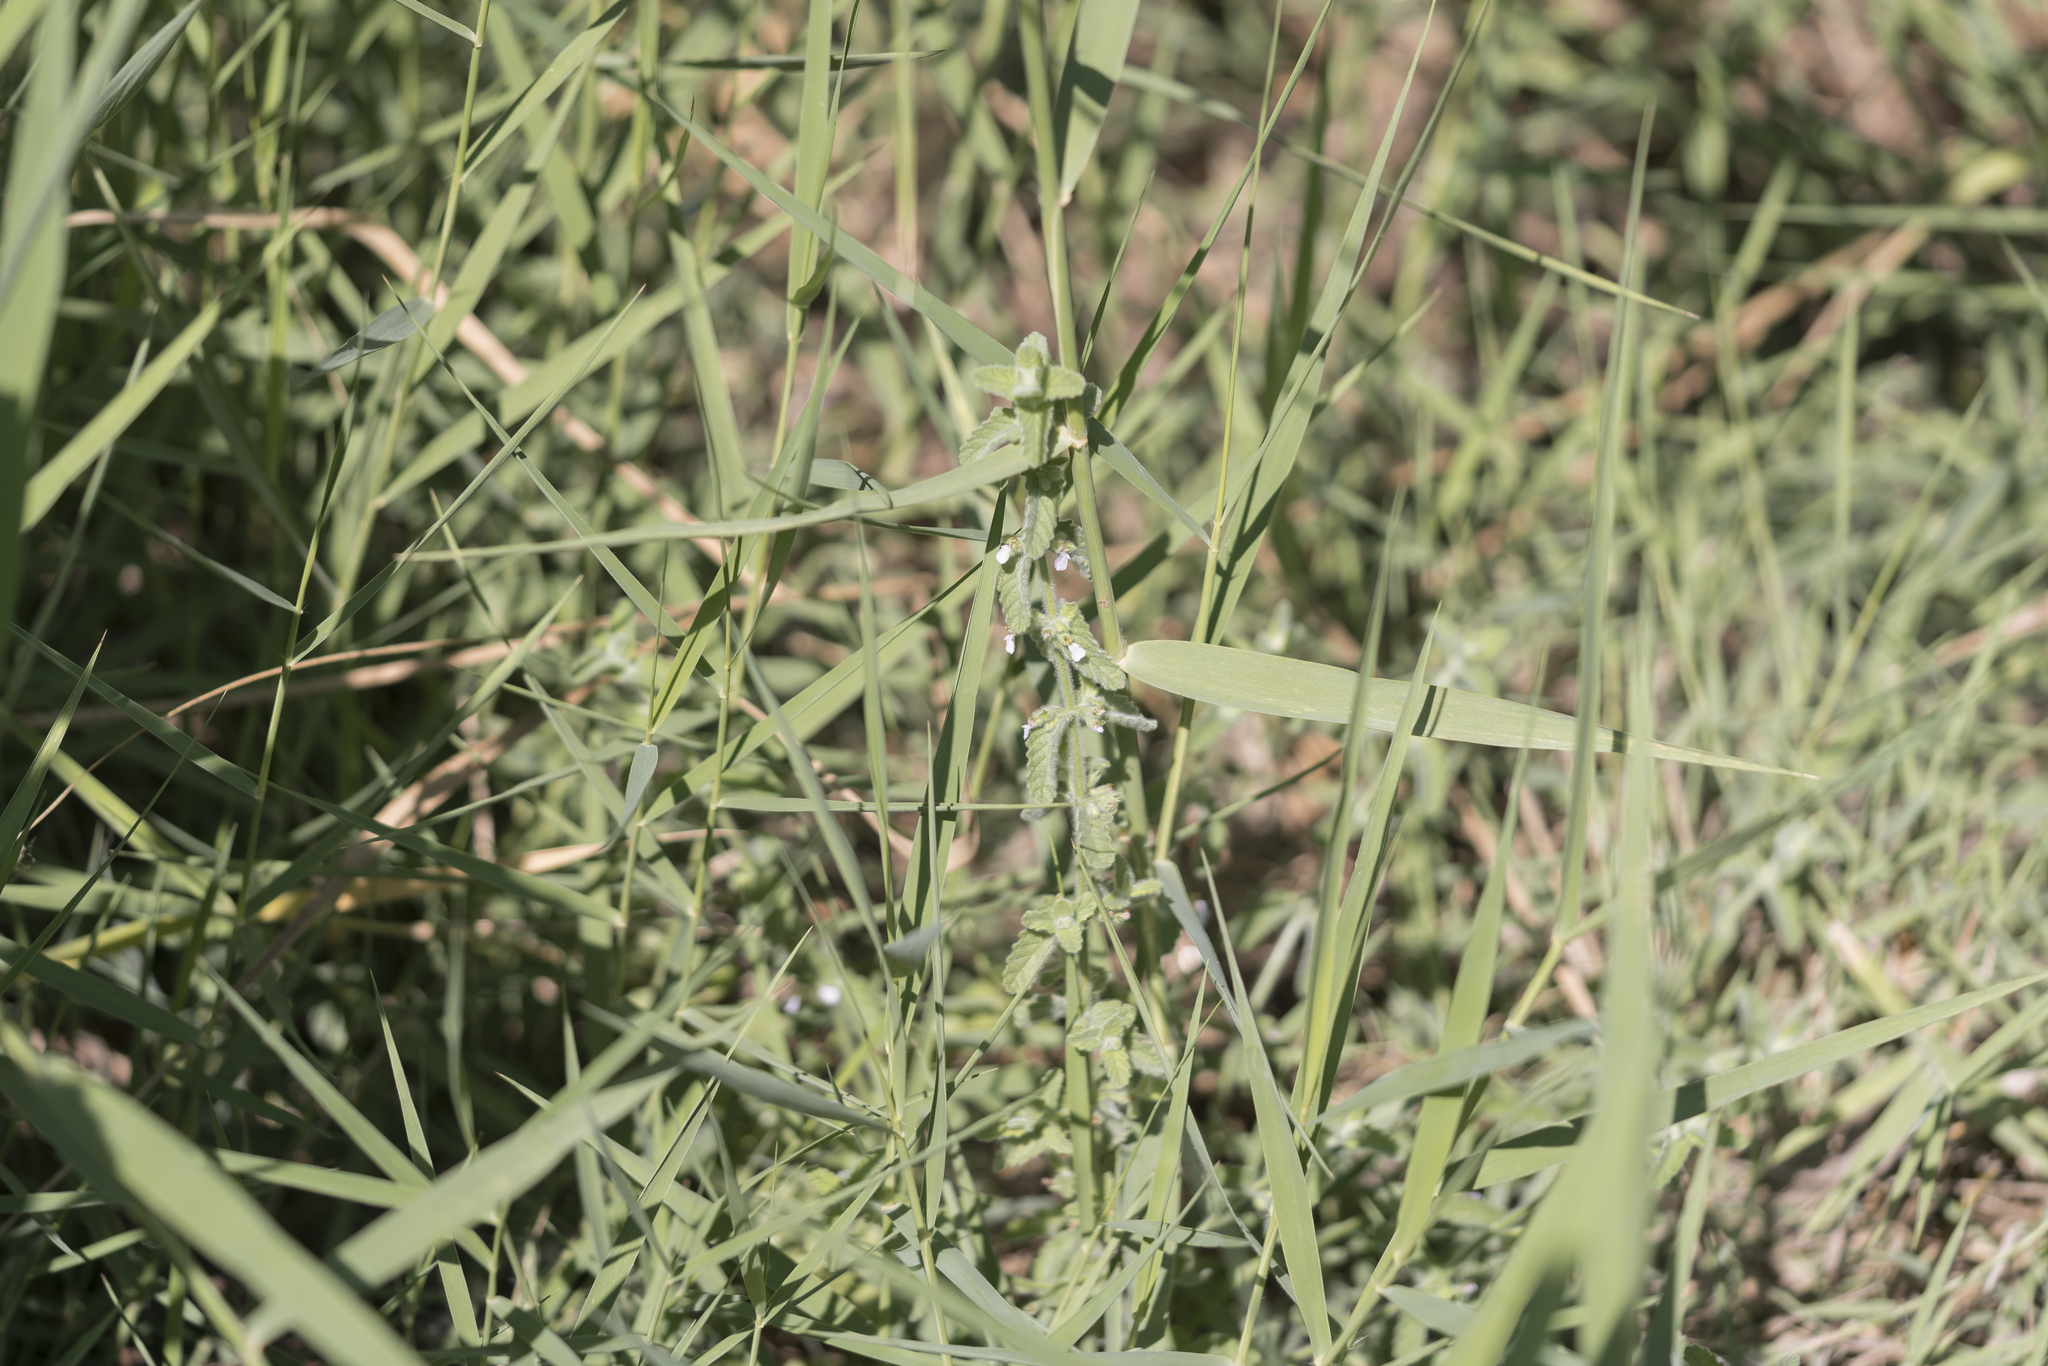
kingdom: Plantae
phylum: Tracheophyta
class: Magnoliopsida
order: Lamiales
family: Lamiaceae
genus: Teucrium
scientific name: Teucrium scordium
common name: Water germander
